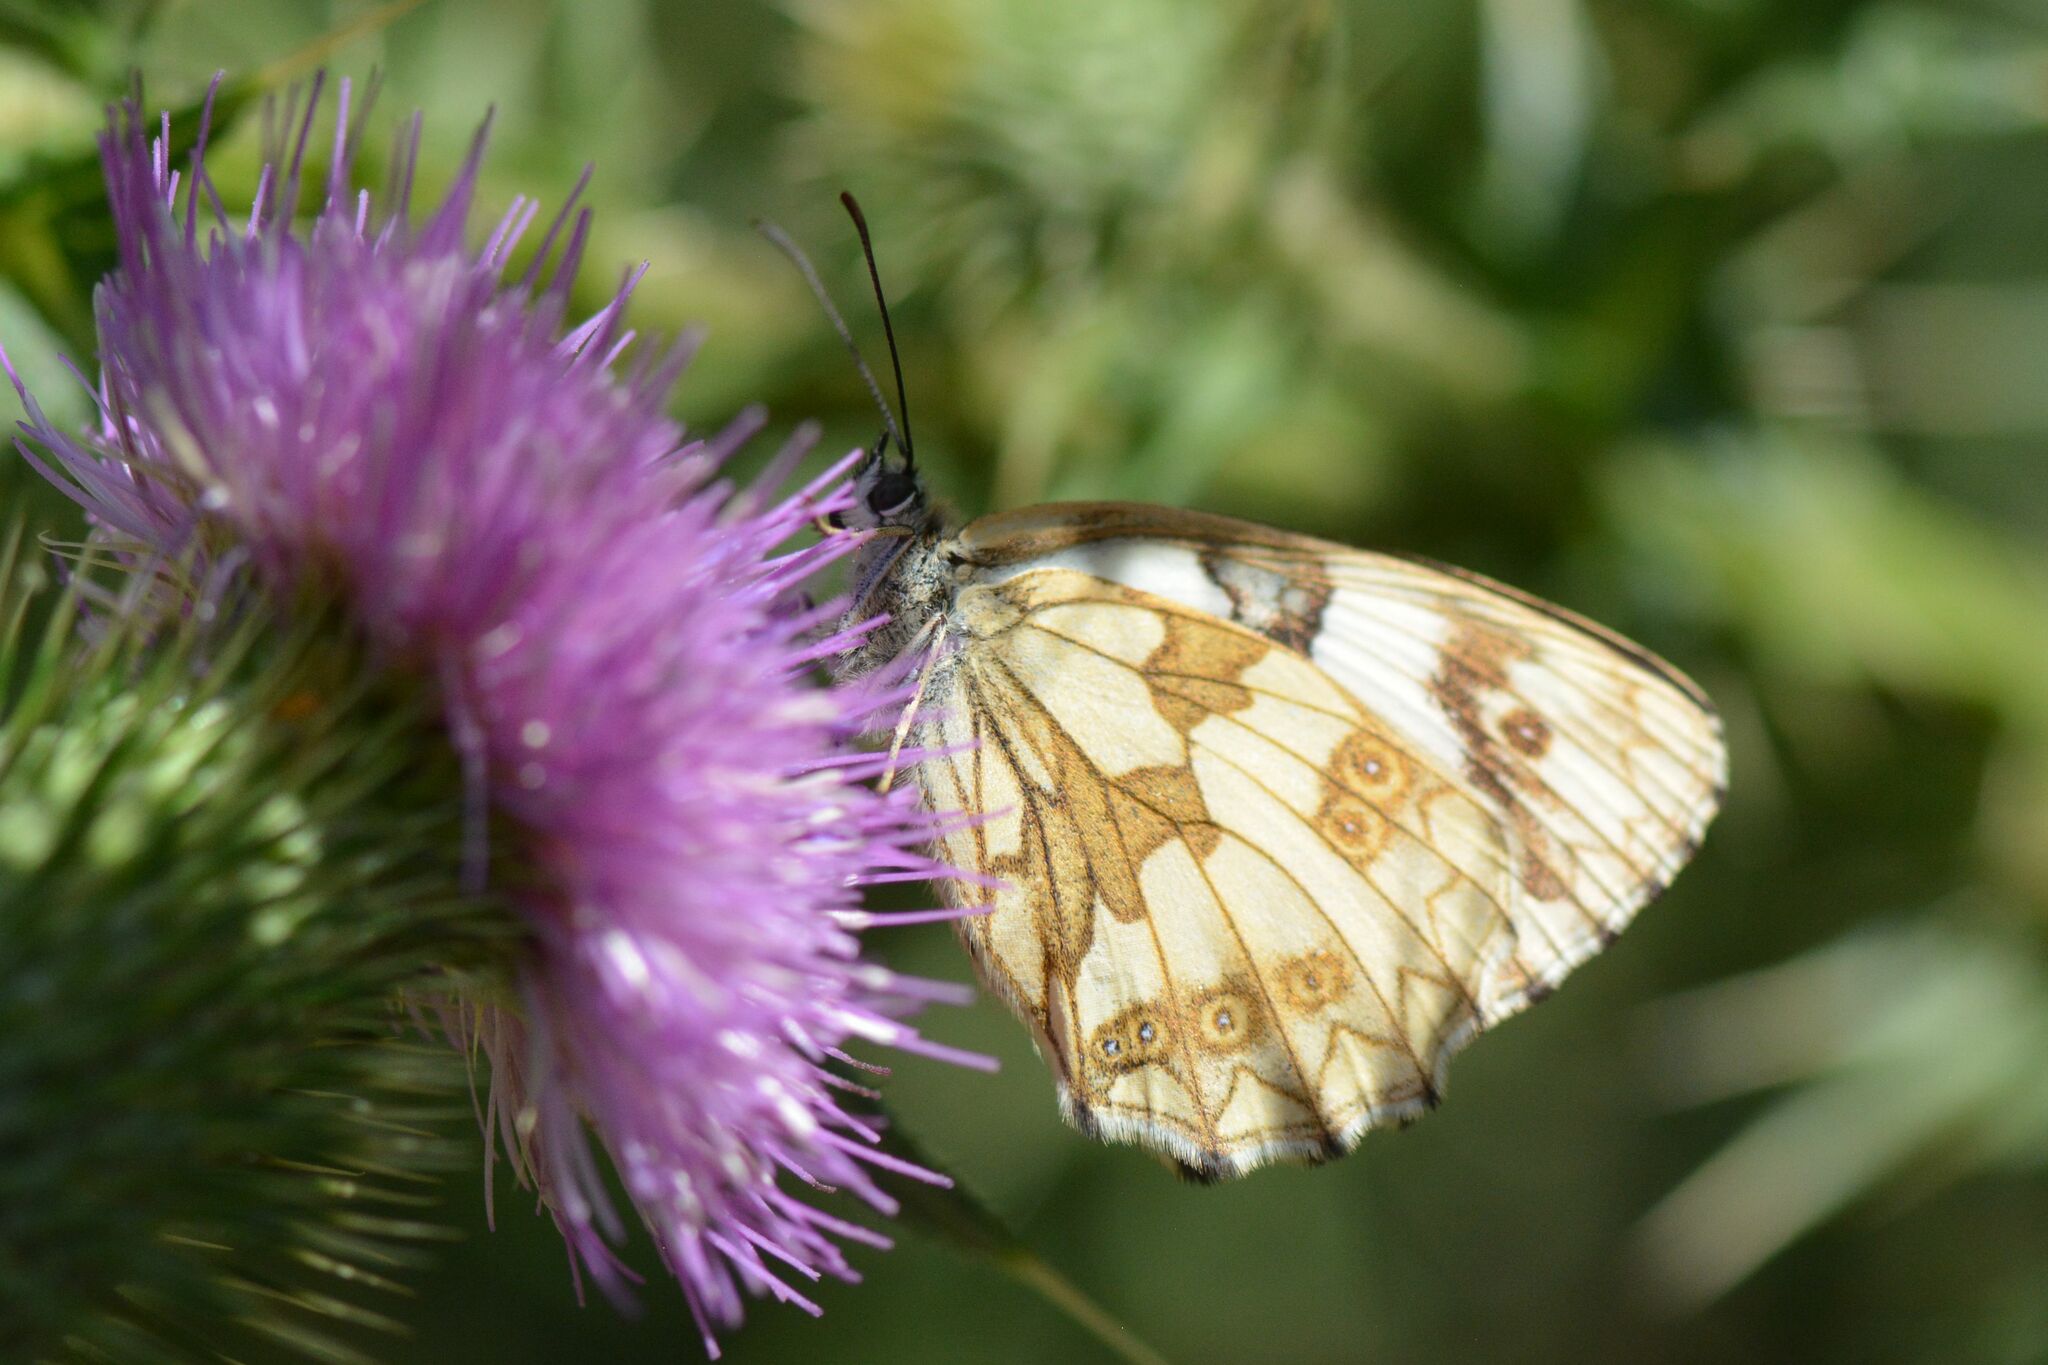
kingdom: Animalia
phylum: Arthropoda
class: Insecta
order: Lepidoptera
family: Nymphalidae
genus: Melanargia
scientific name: Melanargia galathea
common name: Marbled white
